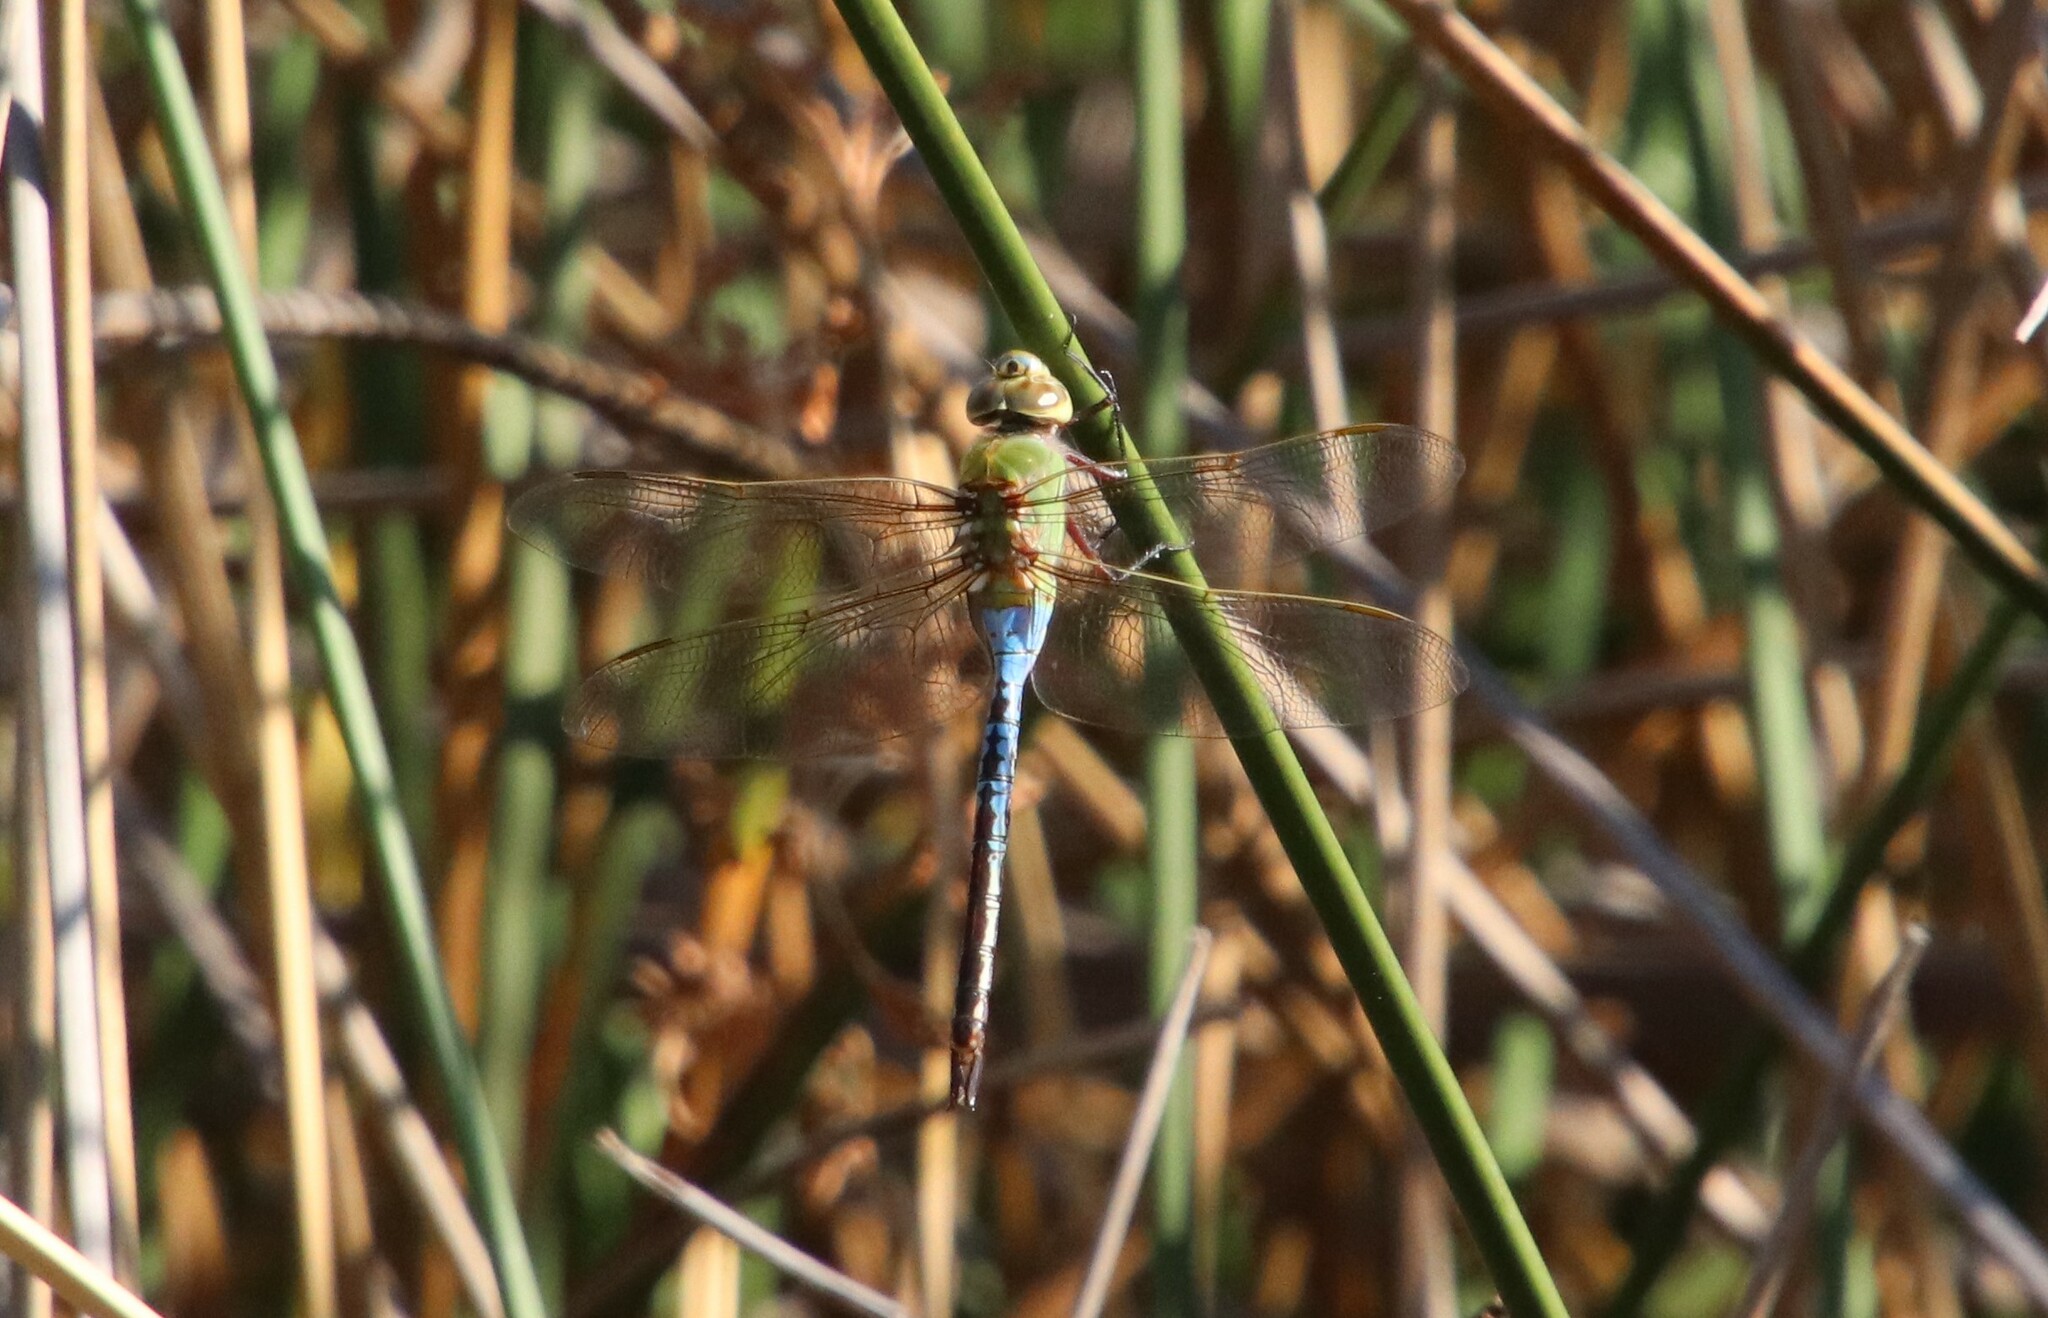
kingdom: Animalia
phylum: Arthropoda
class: Insecta
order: Odonata
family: Aeshnidae
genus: Anax
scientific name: Anax junius
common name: Common green darner
